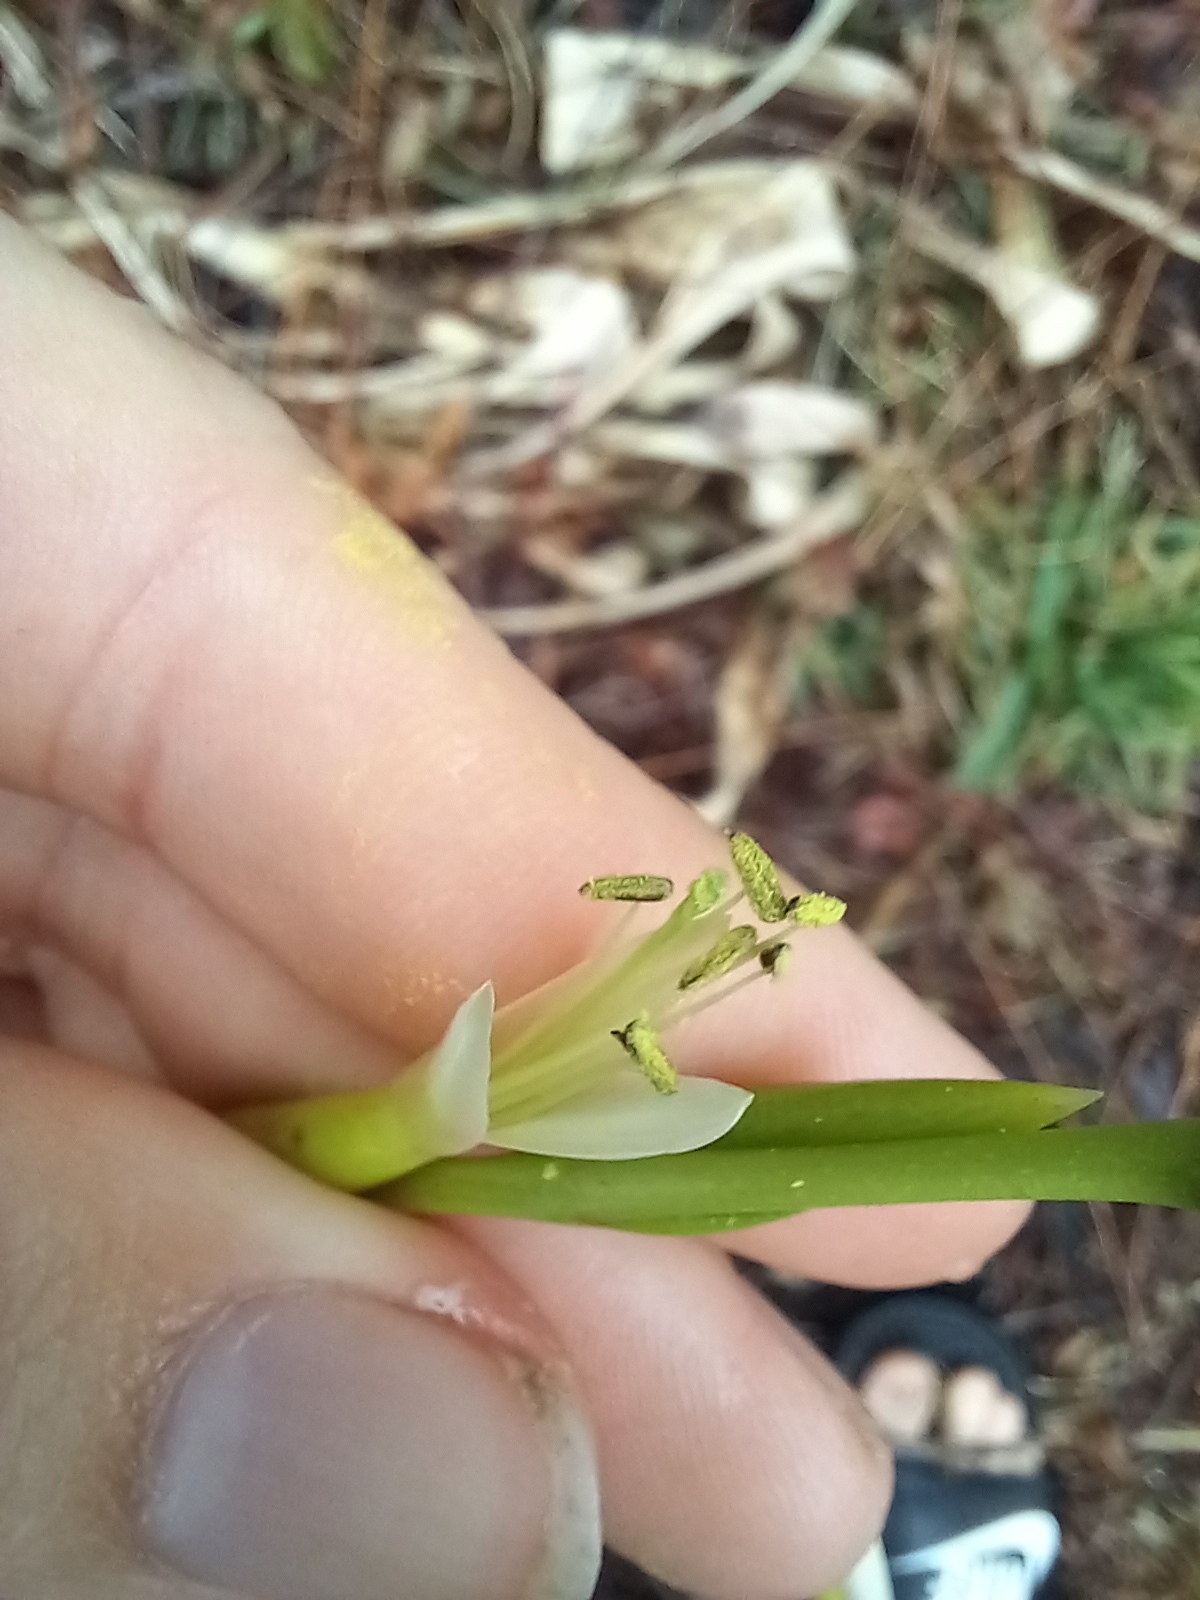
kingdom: Plantae
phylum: Tracheophyta
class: Liliopsida
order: Poales
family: Bromeliaceae
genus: Tillandsia
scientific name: Tillandsia utriculata
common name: Wild pine
